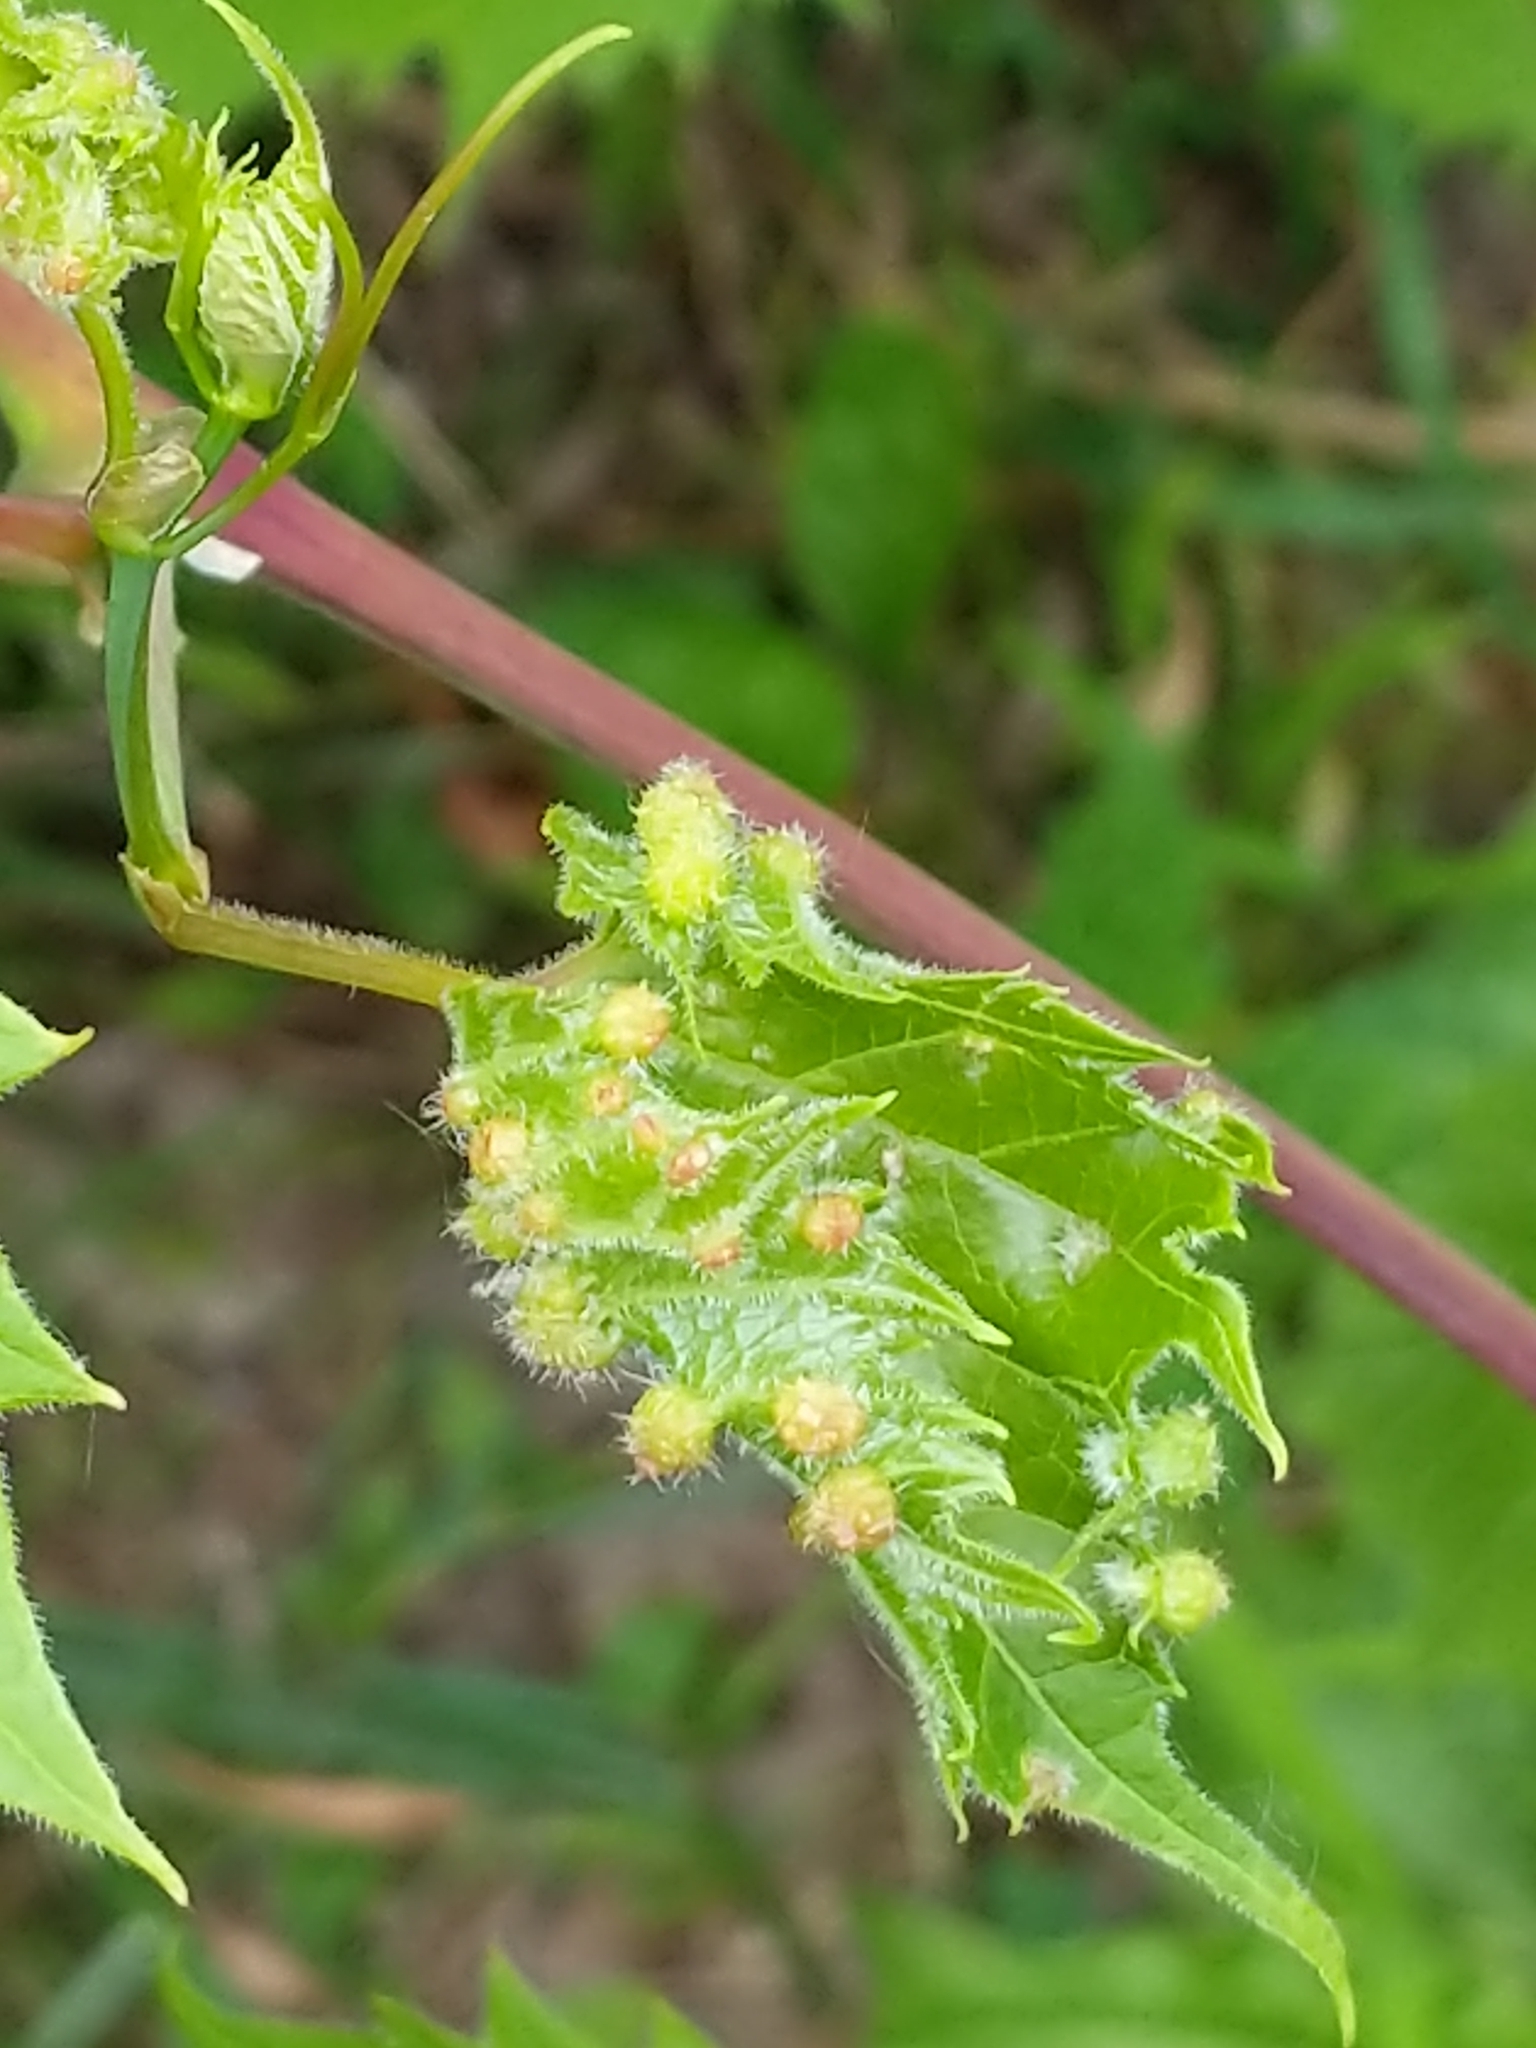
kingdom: Animalia
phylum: Arthropoda
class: Insecta
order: Hemiptera
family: Phylloxeridae
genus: Daktulosphaira
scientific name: Daktulosphaira vitifoliae
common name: Grape phylloxera
